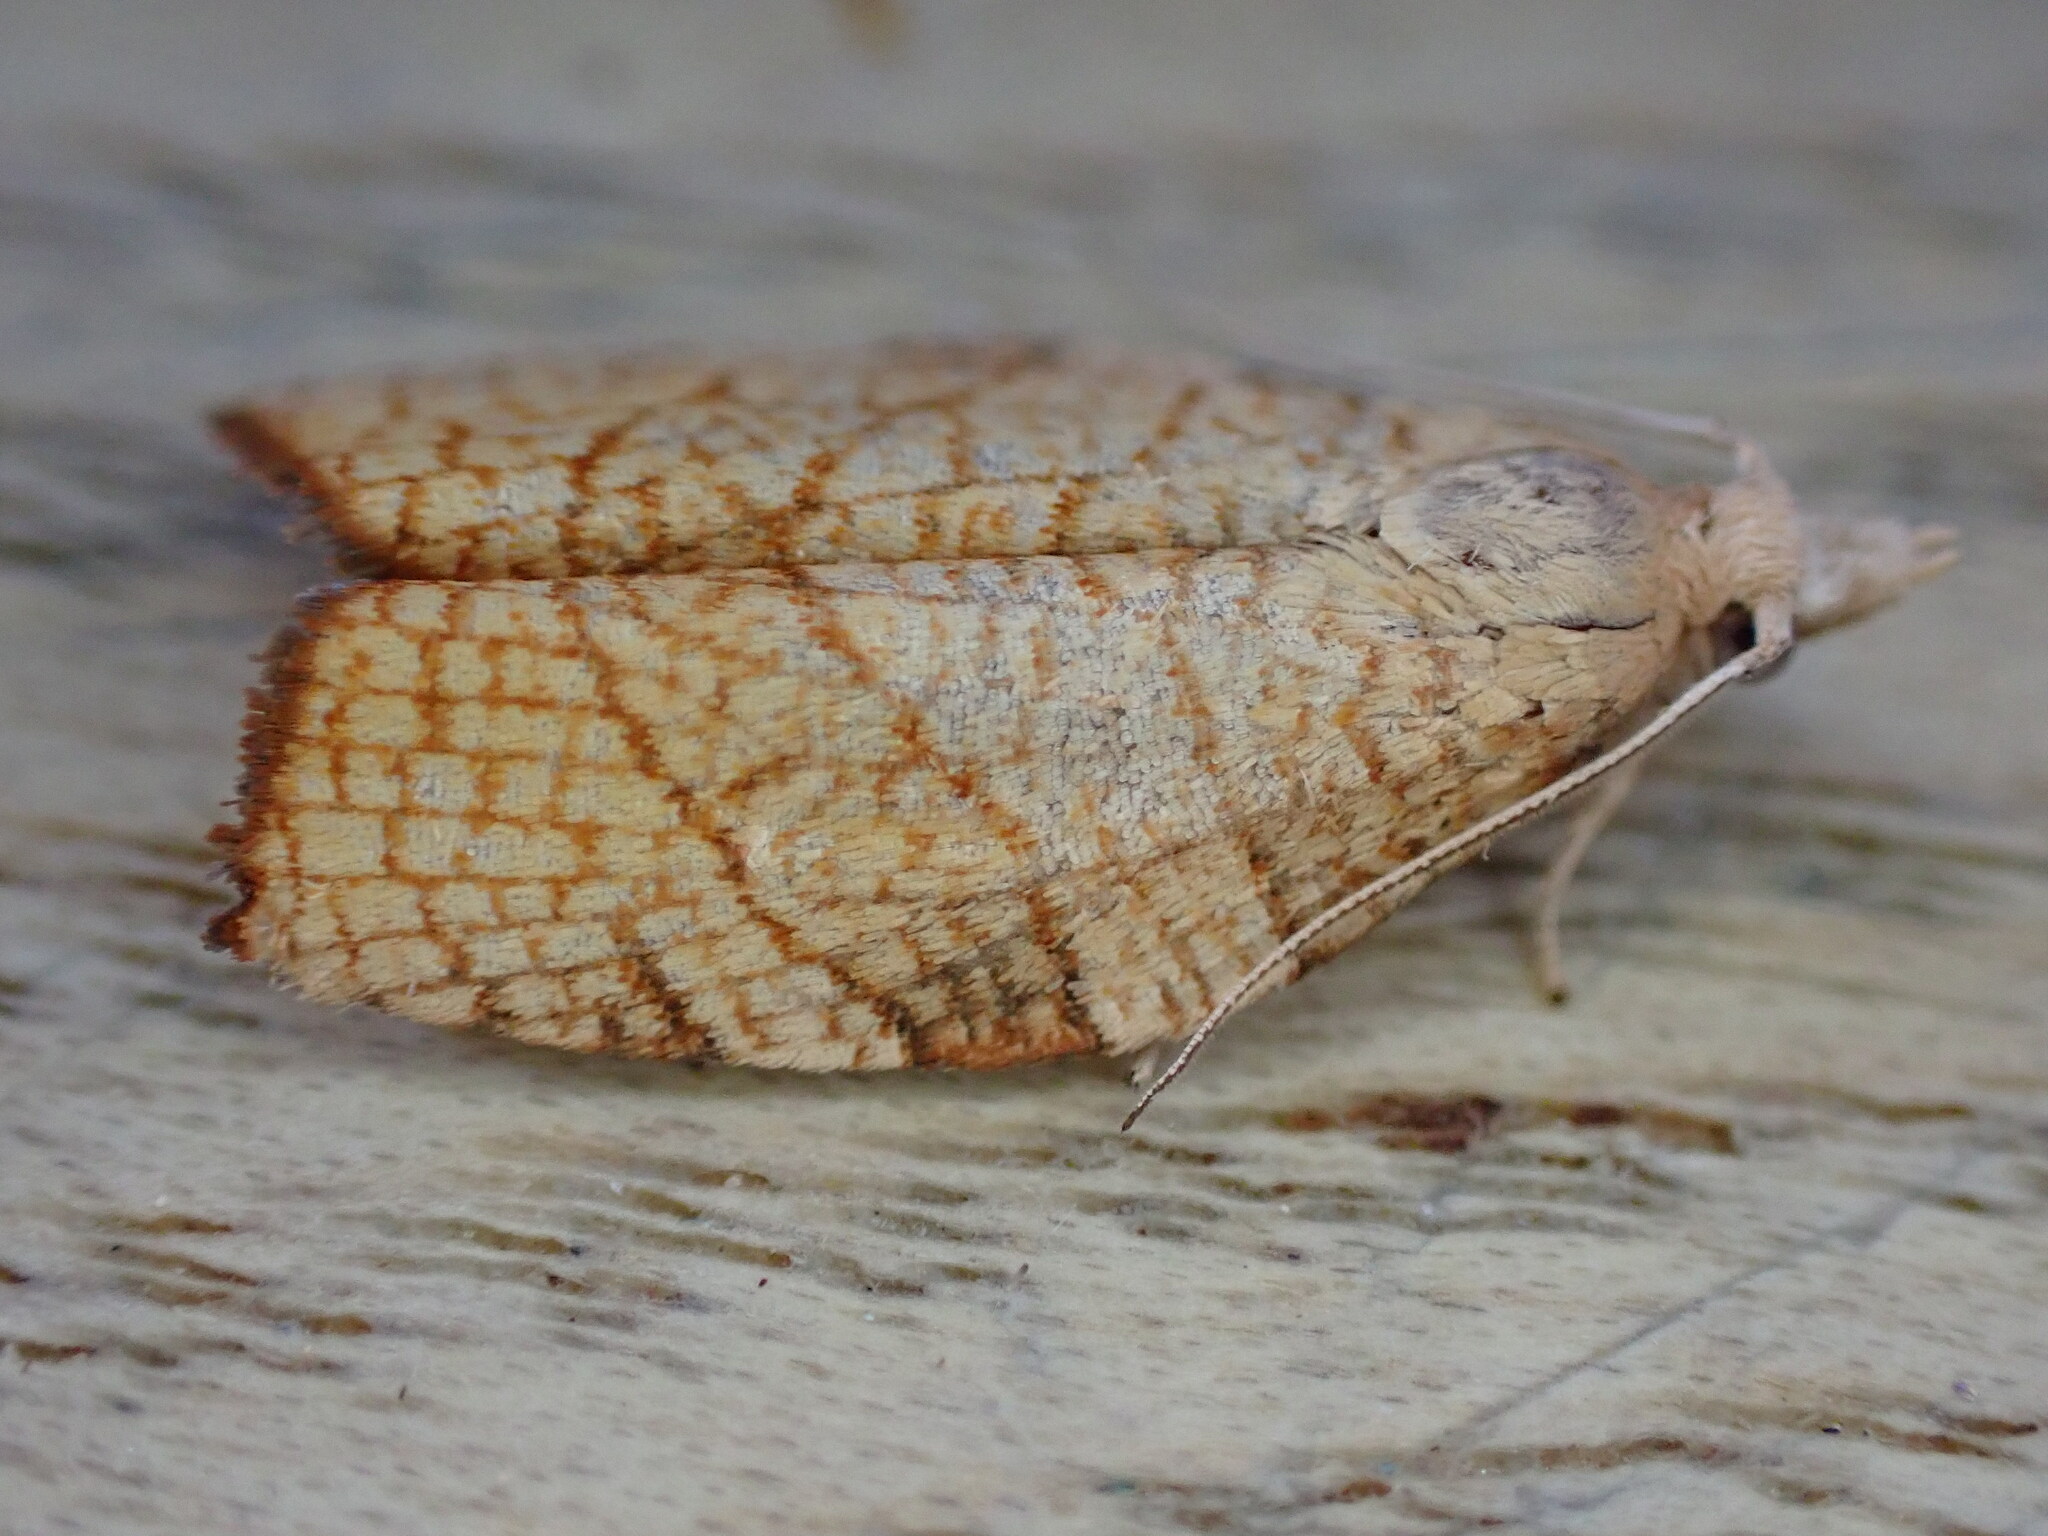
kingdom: Animalia
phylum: Arthropoda
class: Insecta
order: Lepidoptera
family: Tortricidae
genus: Pandemis
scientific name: Pandemis corylana
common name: Chequered fruit-tree tortrix
